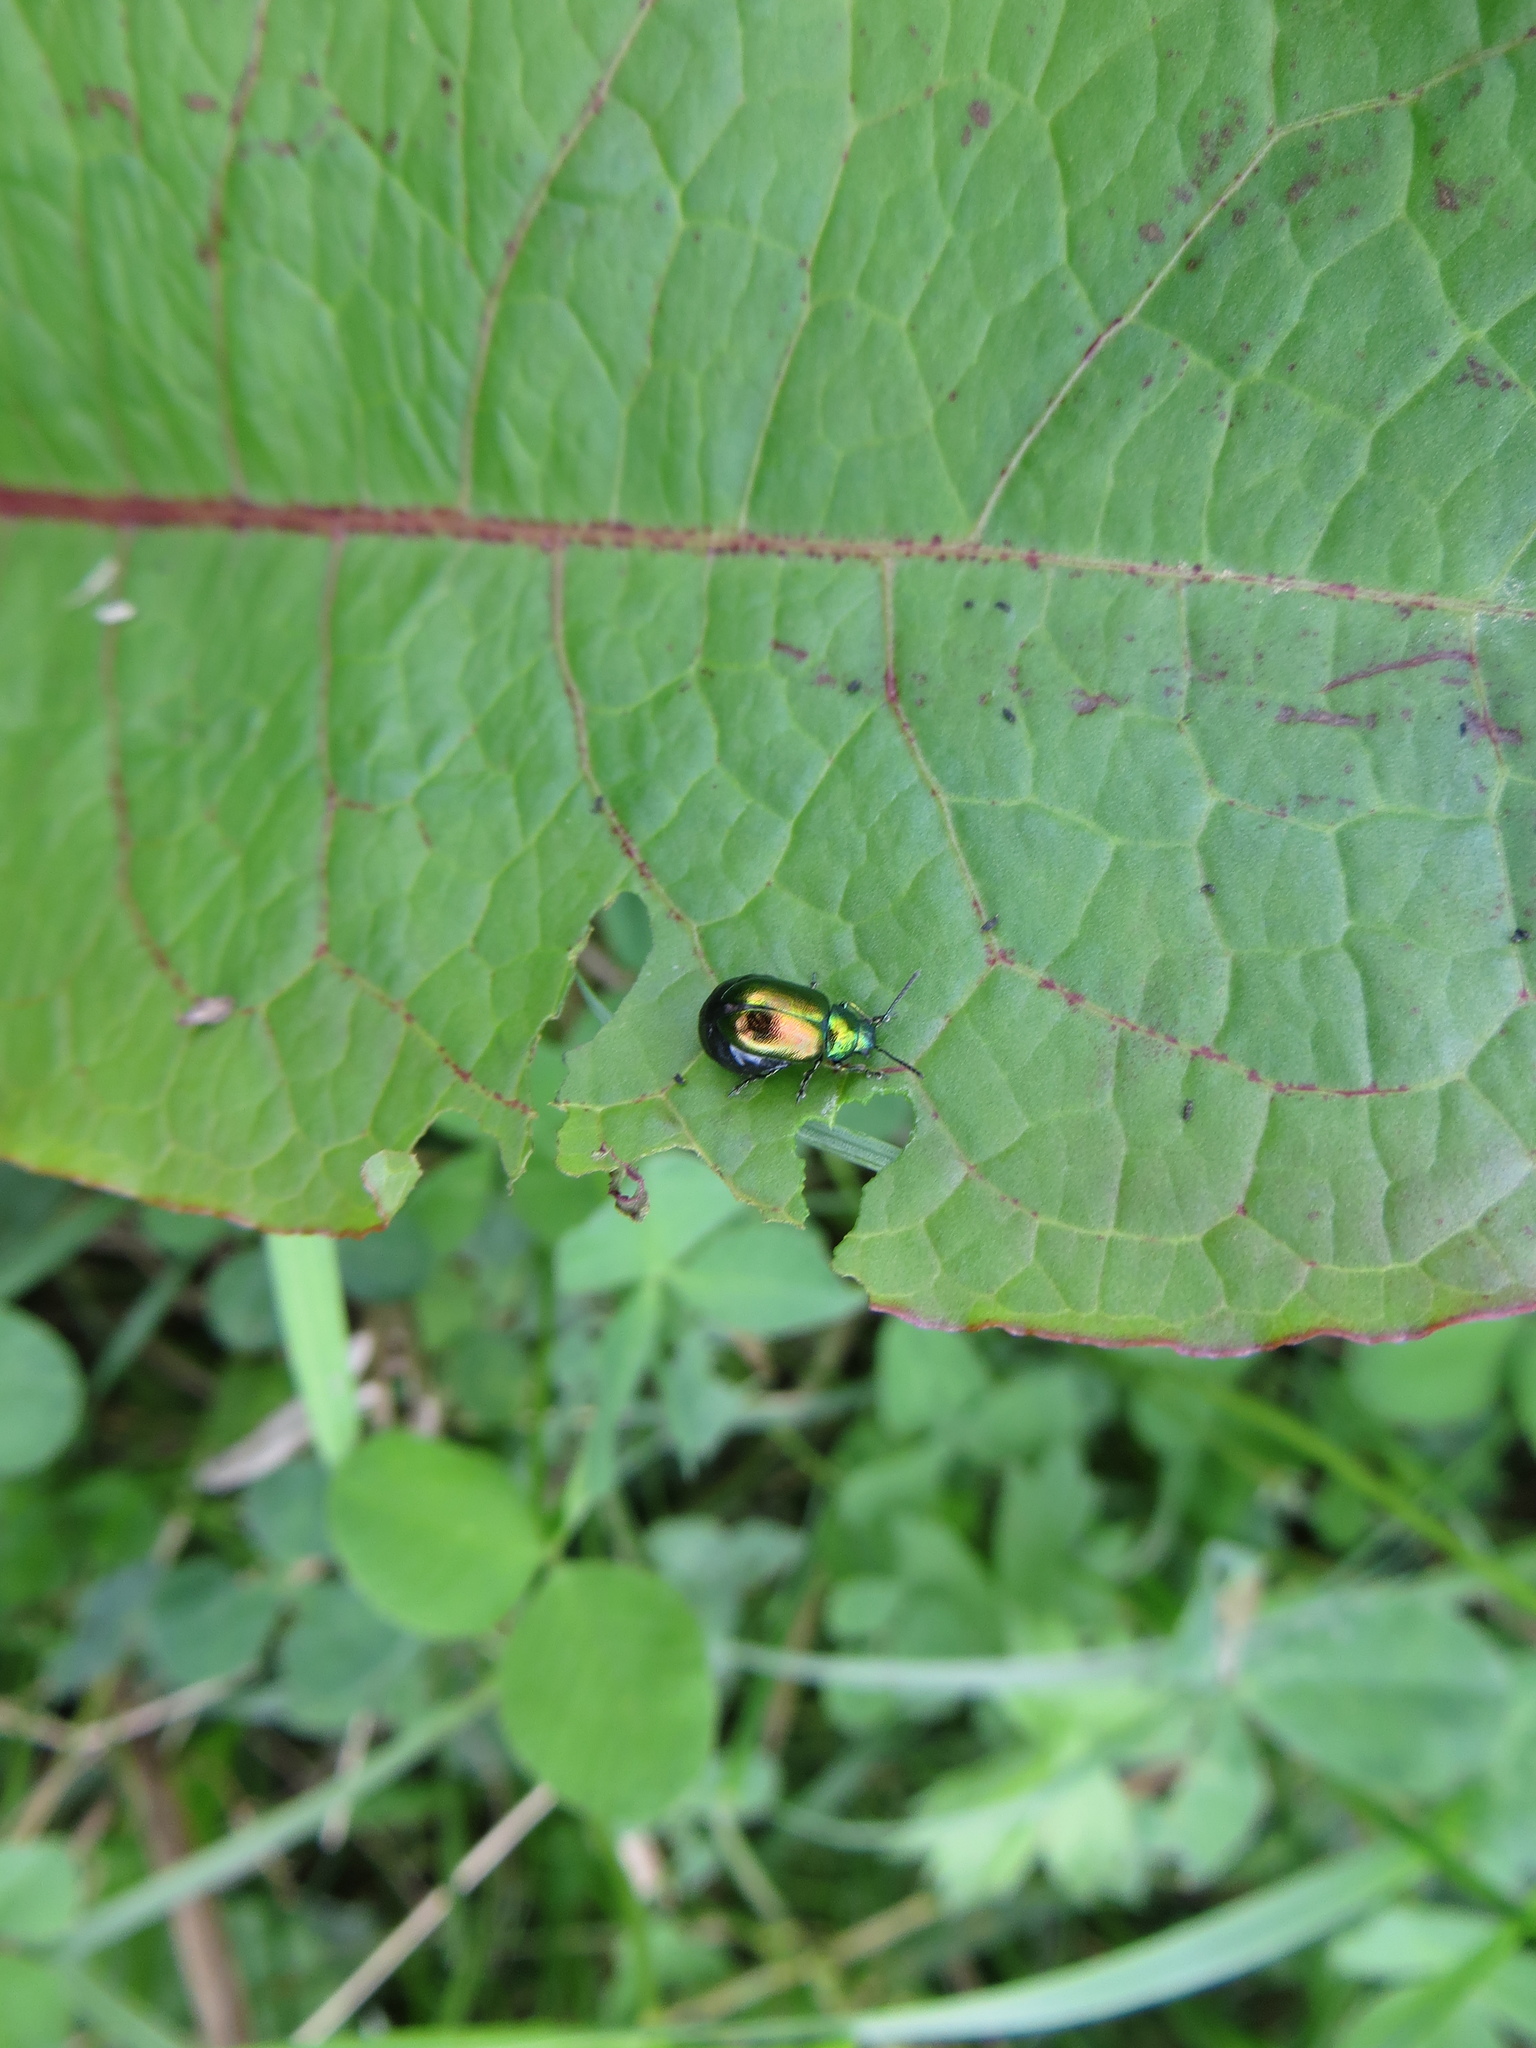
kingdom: Animalia
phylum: Arthropoda
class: Insecta
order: Coleoptera
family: Chrysomelidae
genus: Gastrophysa
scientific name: Gastrophysa viridula
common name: Green dock beetle
